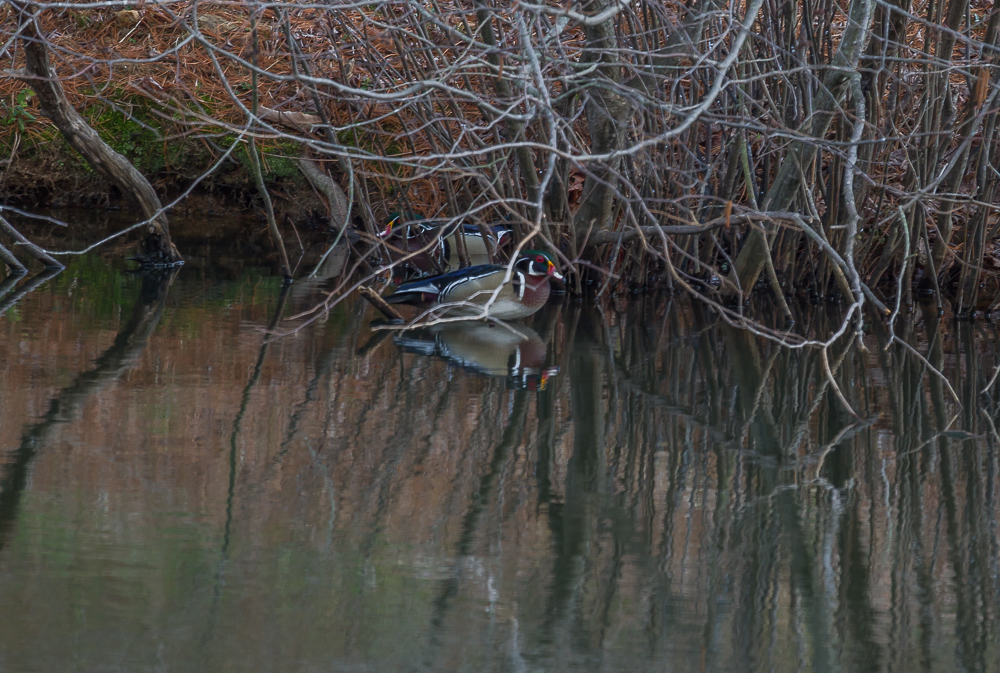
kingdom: Animalia
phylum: Chordata
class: Aves
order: Anseriformes
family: Anatidae
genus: Aix
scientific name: Aix sponsa
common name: Wood duck
